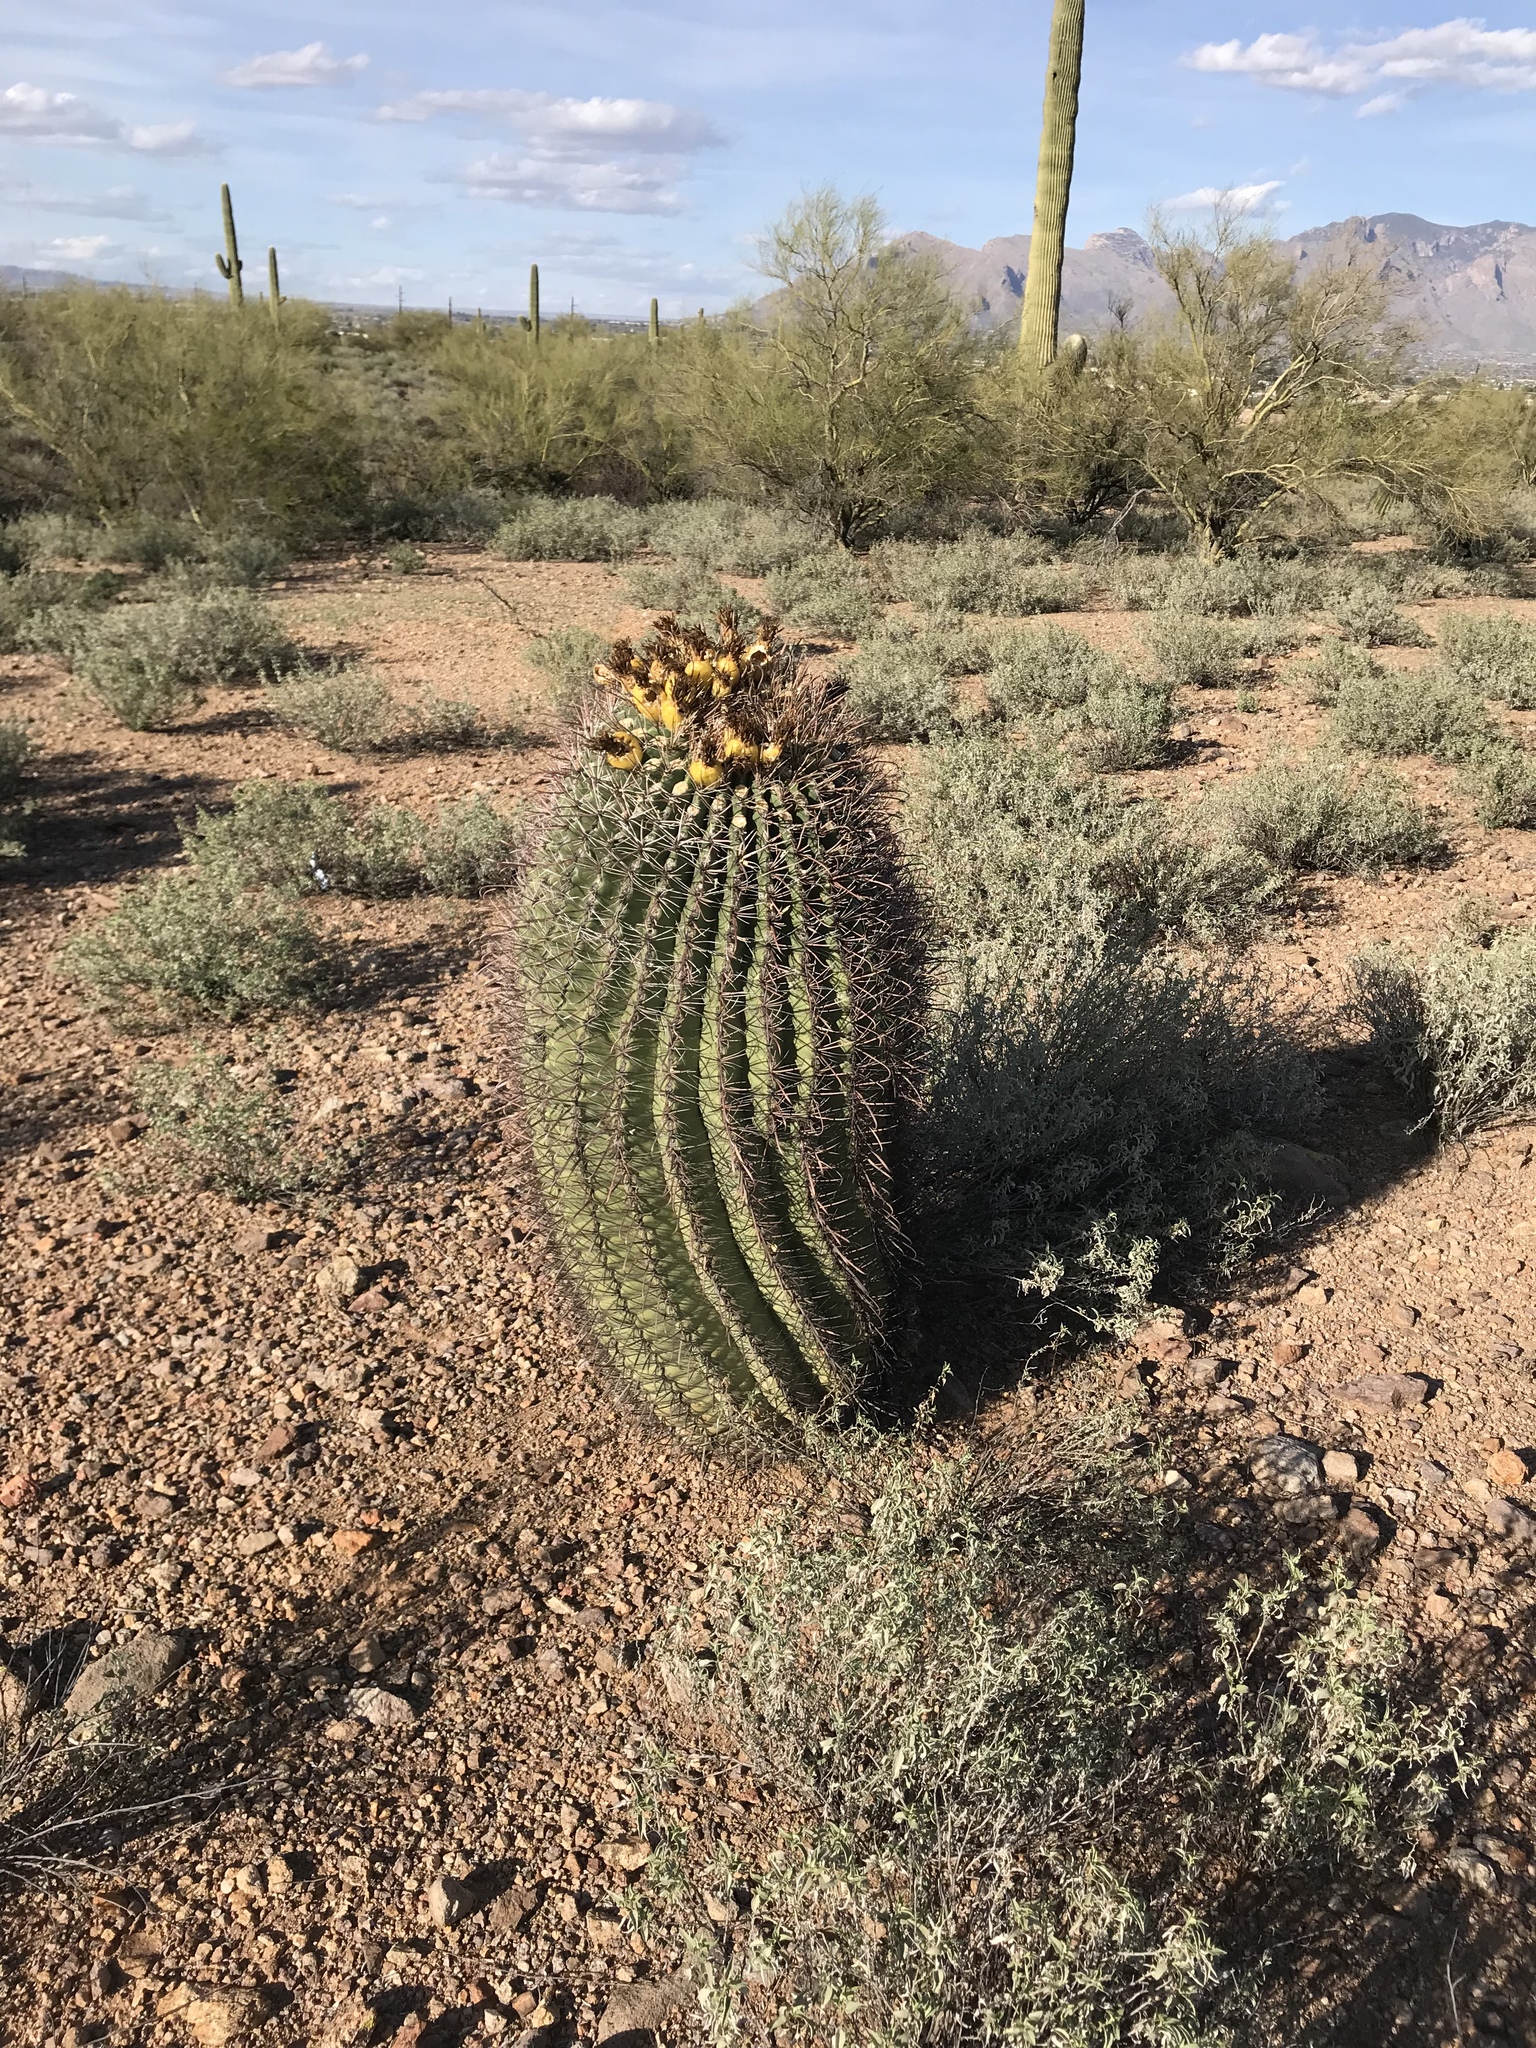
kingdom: Plantae
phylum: Tracheophyta
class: Magnoliopsida
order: Caryophyllales
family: Cactaceae
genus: Ferocactus
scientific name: Ferocactus wislizeni
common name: Candy barrel cactus
